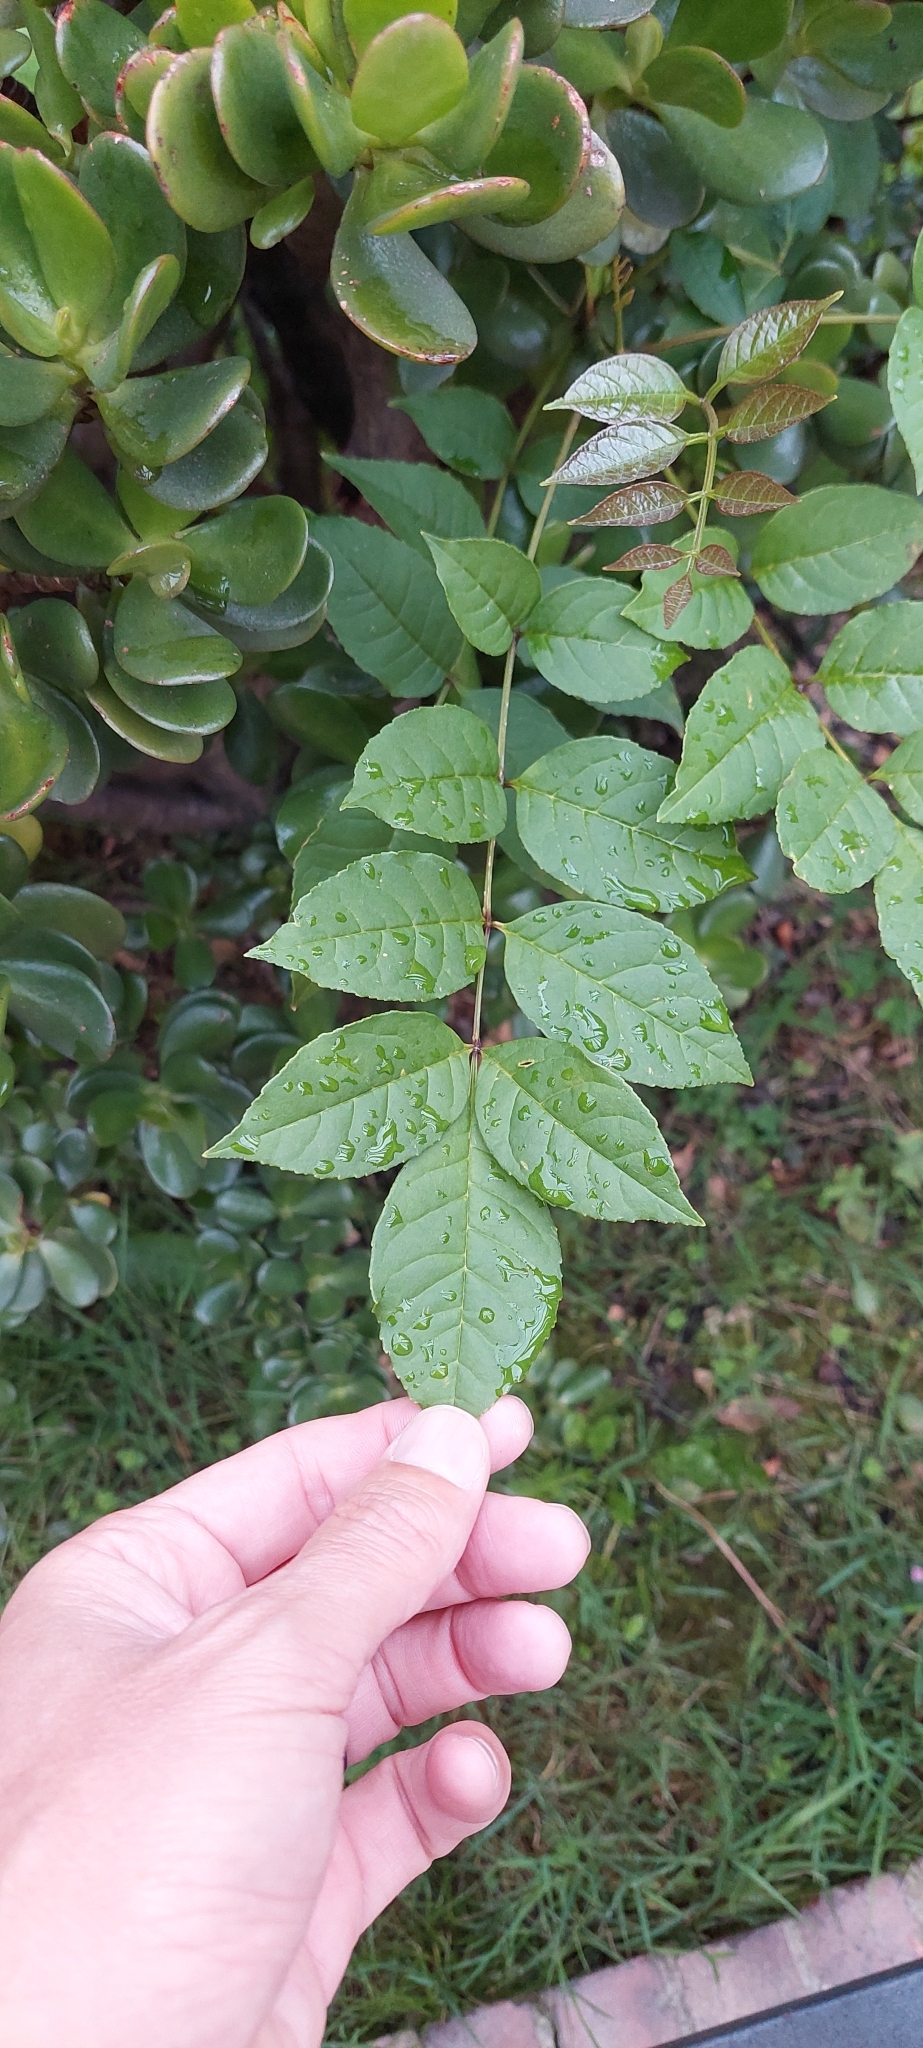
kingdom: Plantae
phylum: Tracheophyta
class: Magnoliopsida
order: Lamiales
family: Oleaceae
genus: Fraxinus
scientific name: Fraxinus uhdei
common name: Shamel ash
